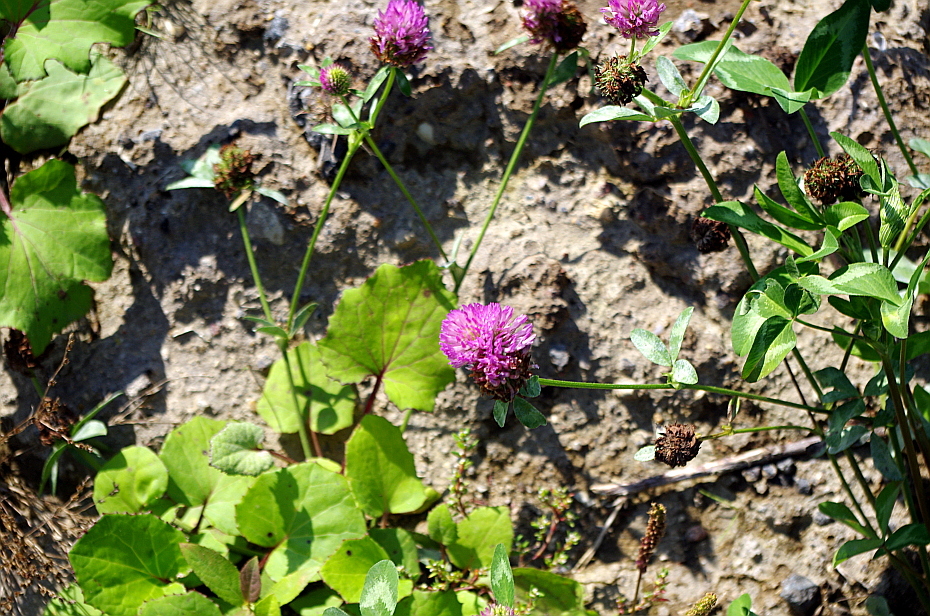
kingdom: Plantae
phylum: Tracheophyta
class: Magnoliopsida
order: Fabales
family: Fabaceae
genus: Trifolium
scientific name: Trifolium pratense
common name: Red clover
